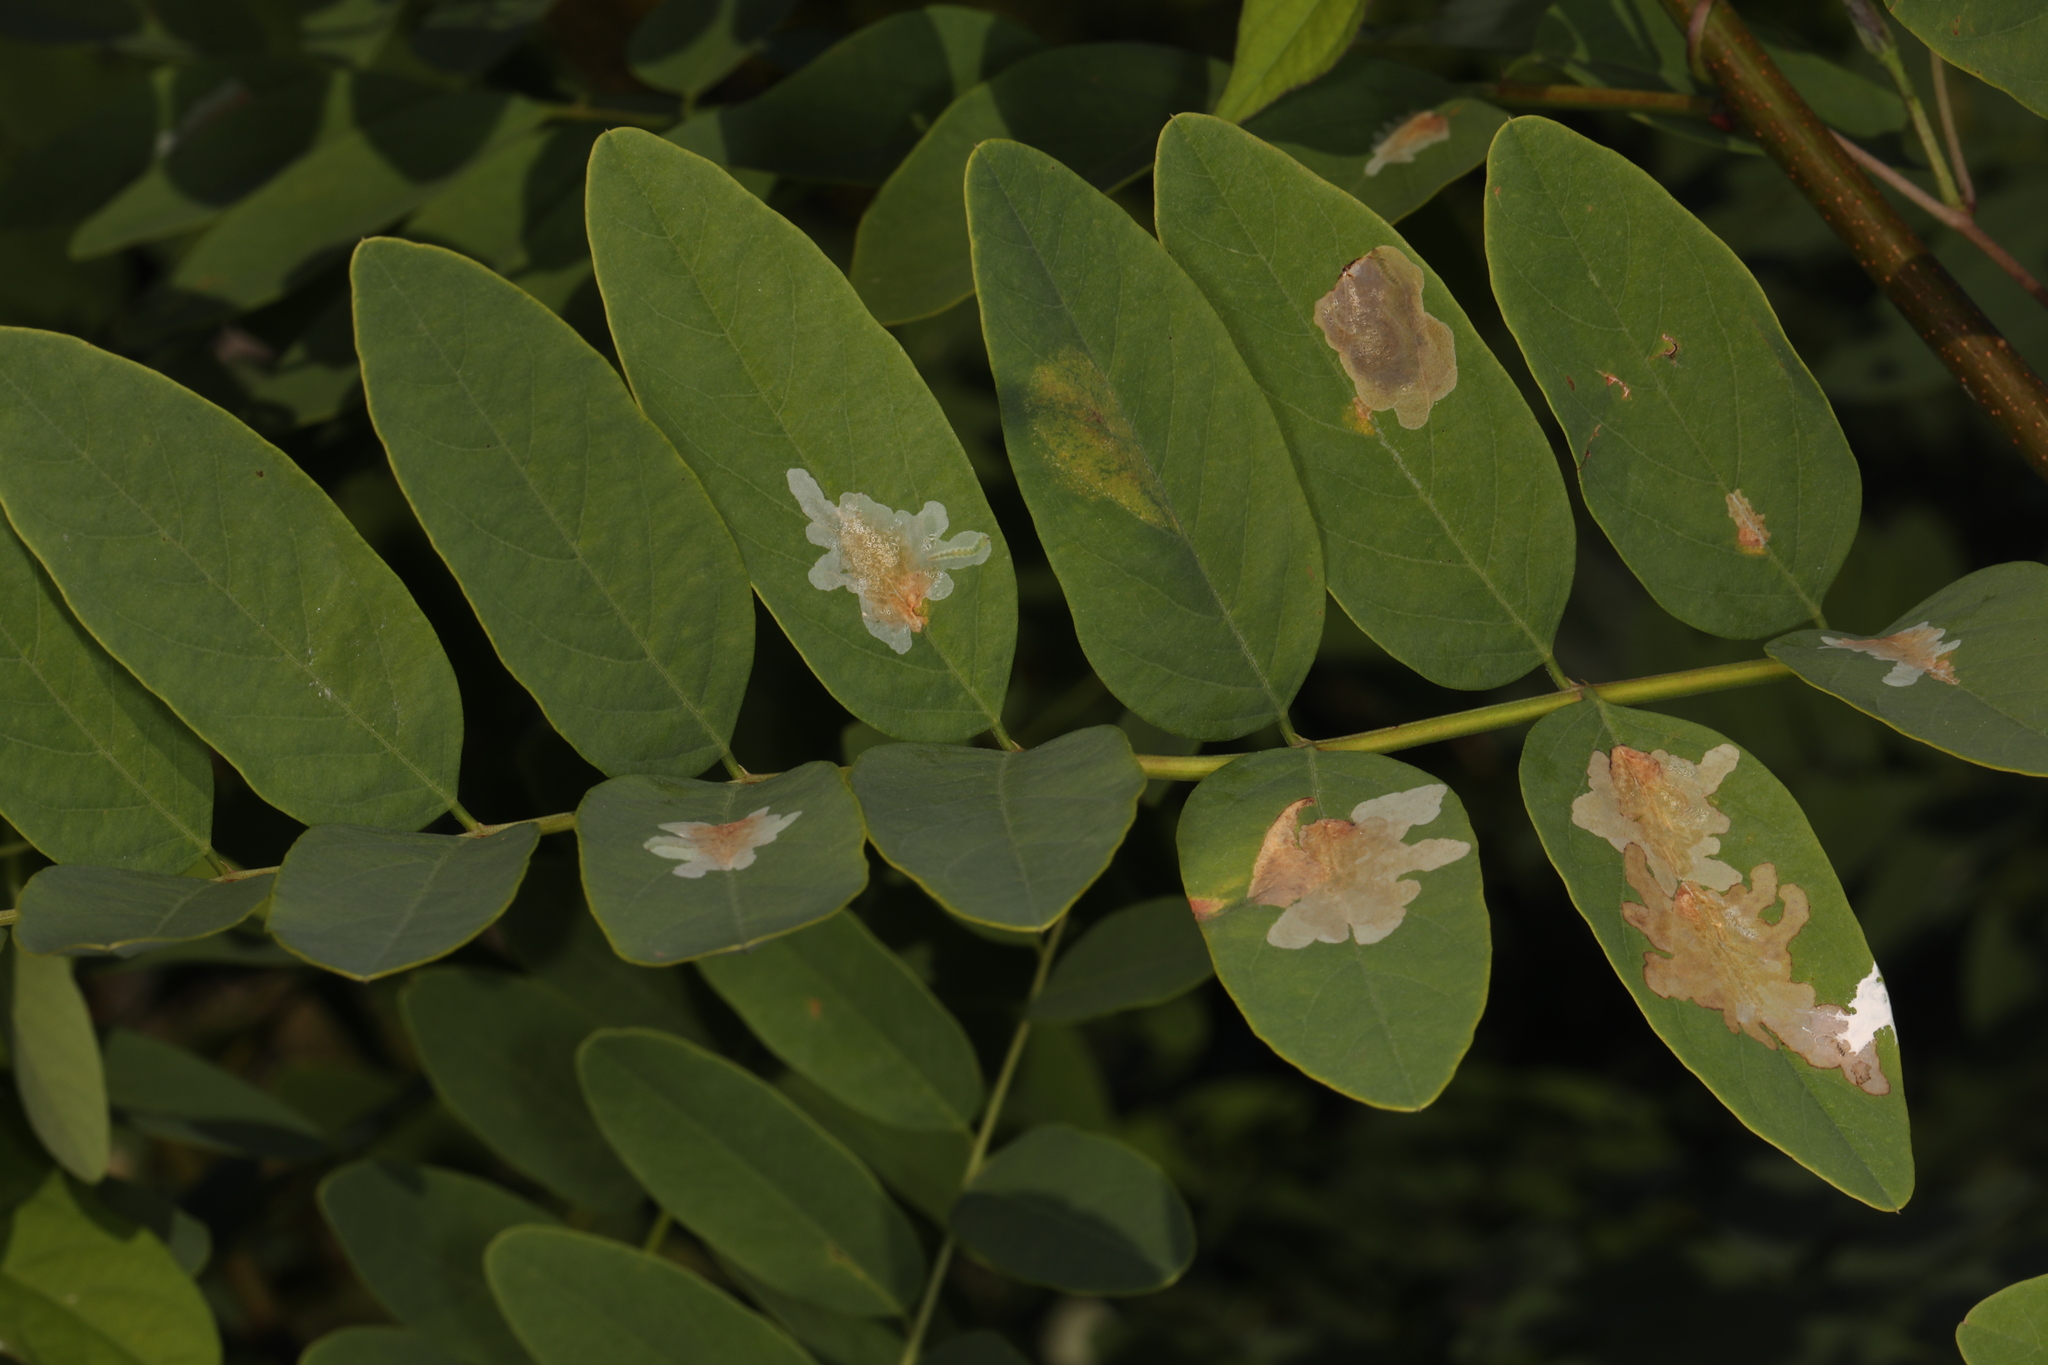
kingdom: Animalia
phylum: Arthropoda
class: Insecta
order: Lepidoptera
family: Gracillariidae
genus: Parectopa
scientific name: Parectopa robiniella
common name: Locust digitate leafminer
